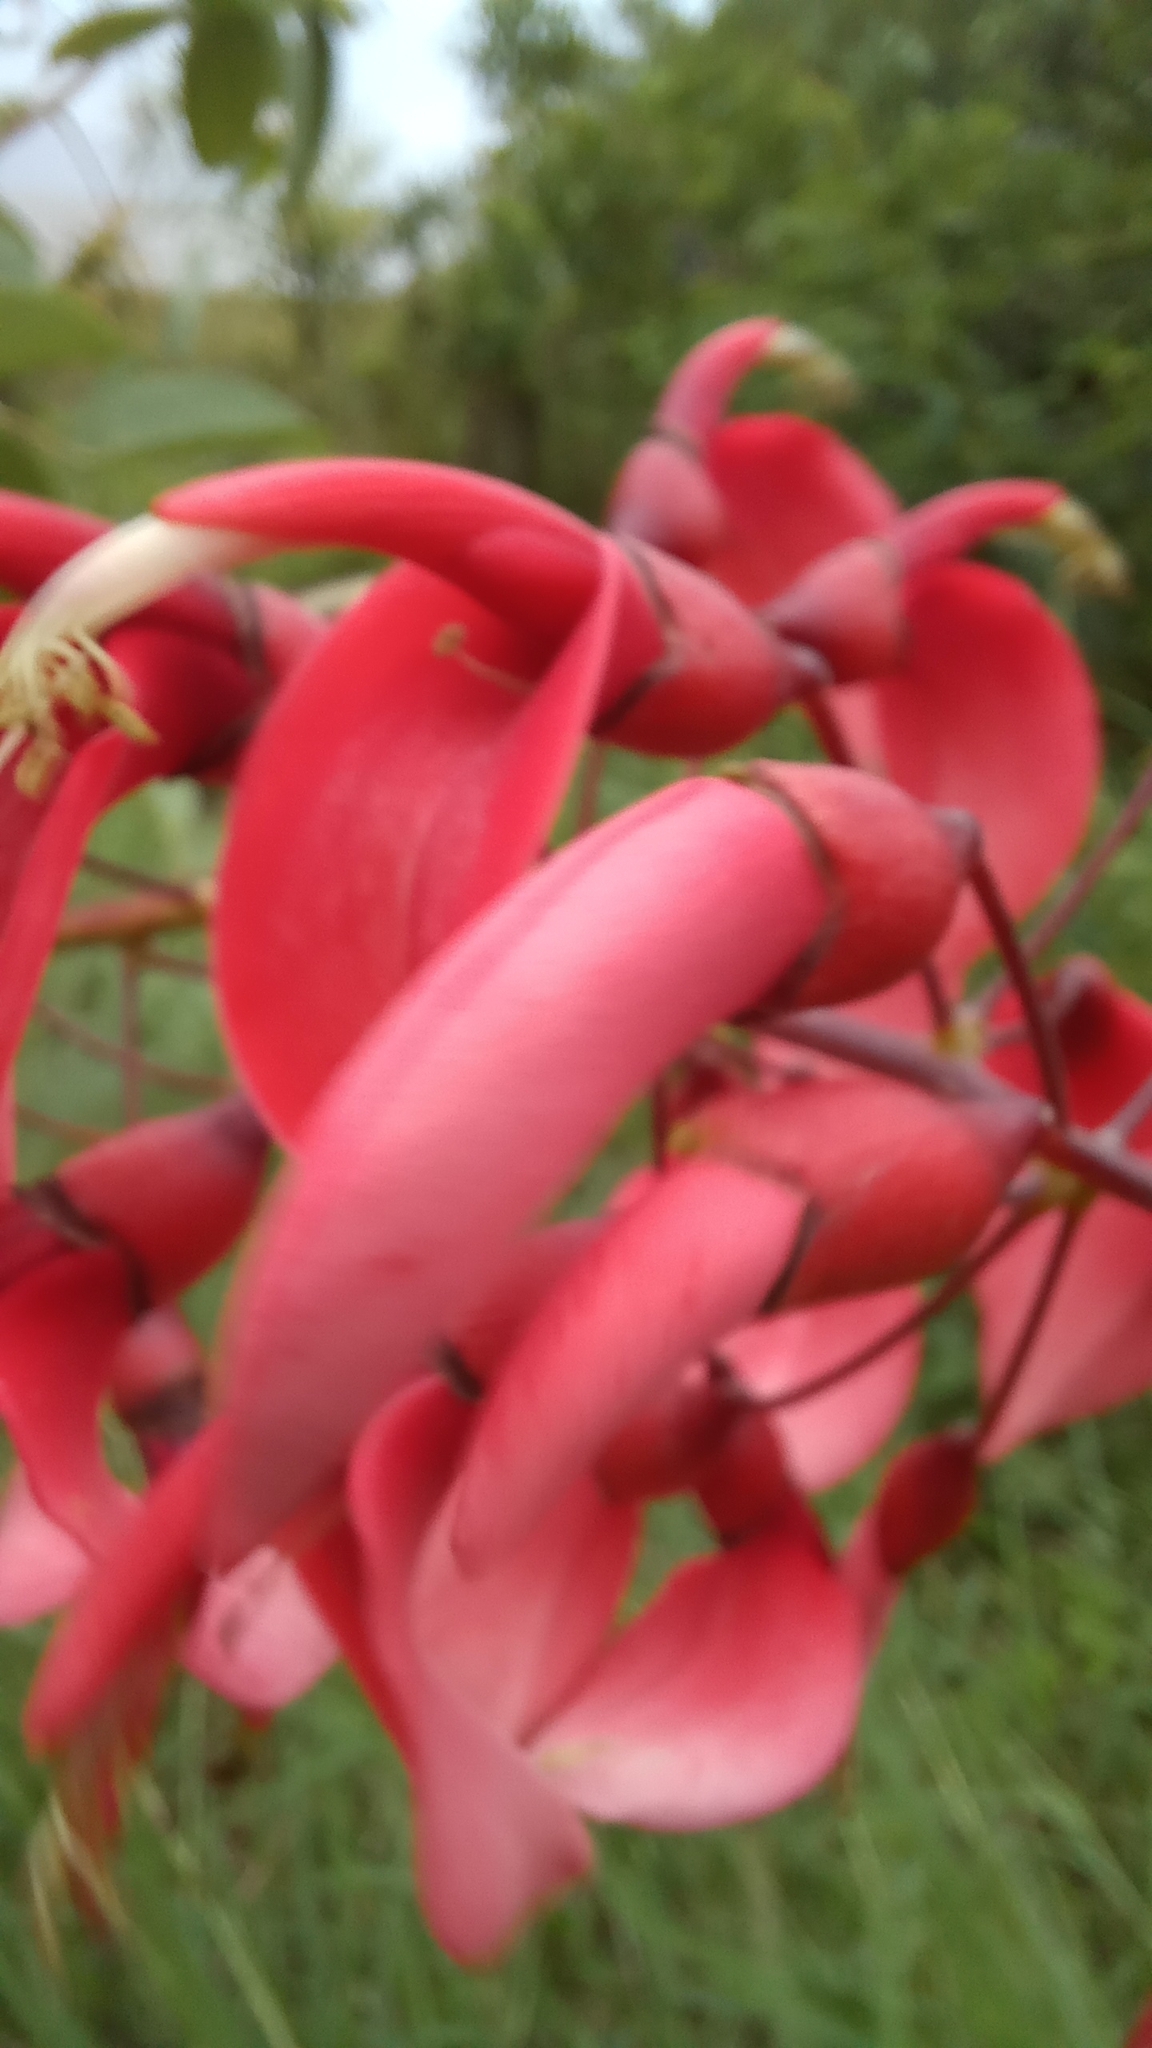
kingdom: Plantae
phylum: Tracheophyta
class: Magnoliopsida
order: Fabales
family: Fabaceae
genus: Erythrina
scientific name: Erythrina crista-galli
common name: Cockspur coral tree
